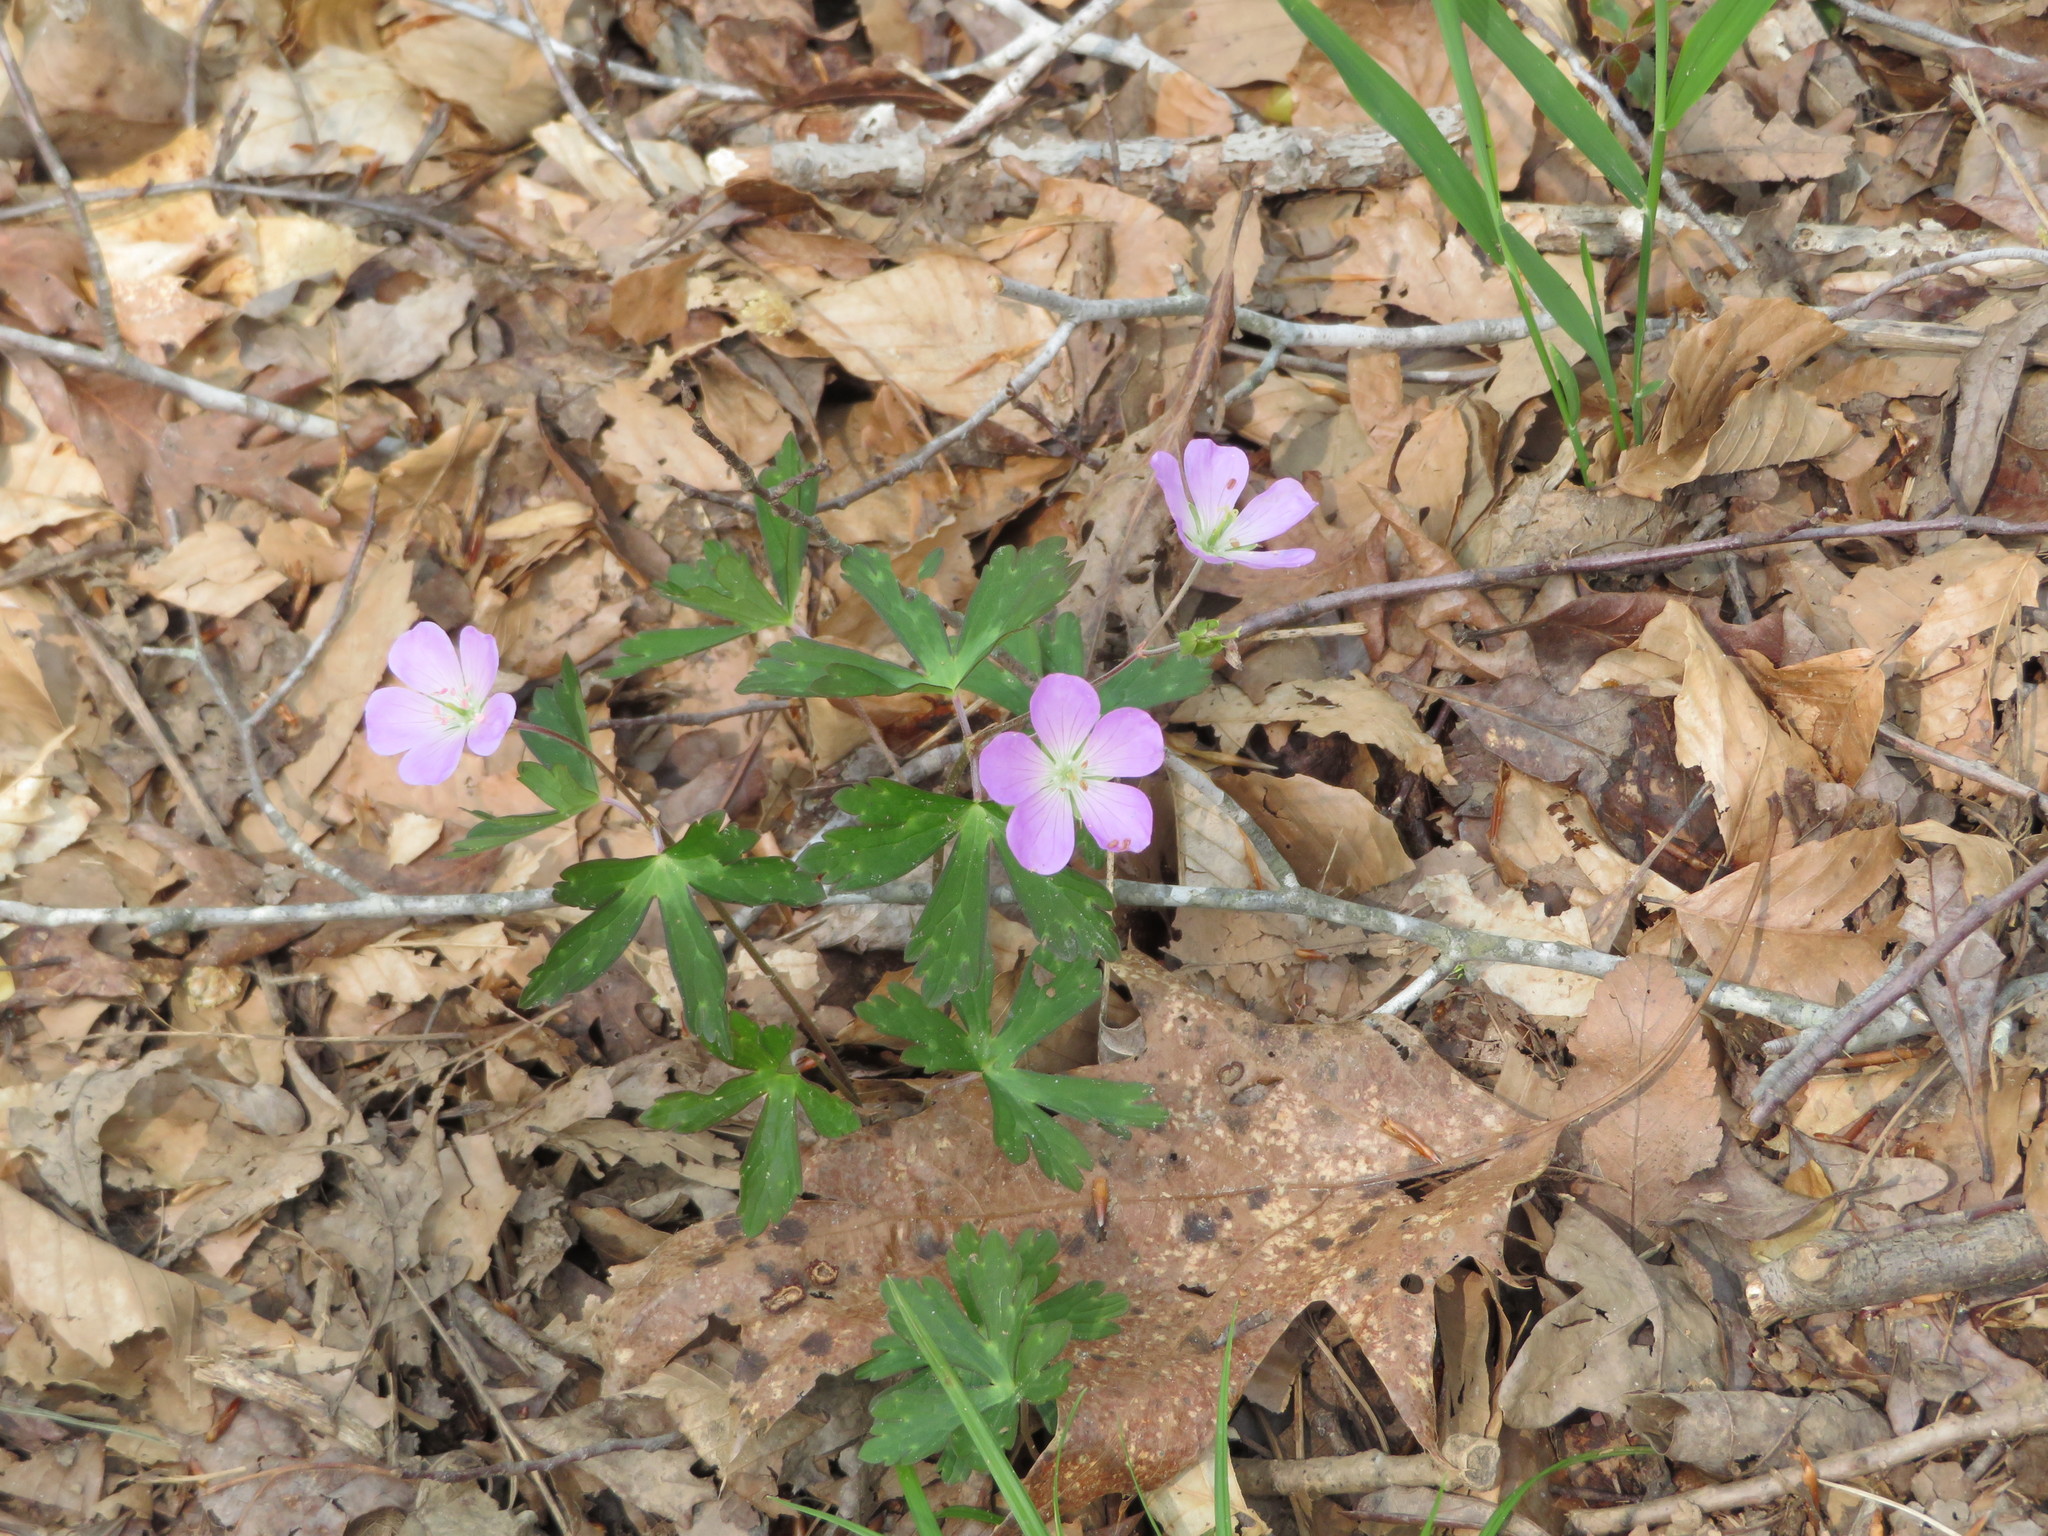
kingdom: Plantae
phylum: Tracheophyta
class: Magnoliopsida
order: Geraniales
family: Geraniaceae
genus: Geranium
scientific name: Geranium maculatum
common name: Spotted geranium
